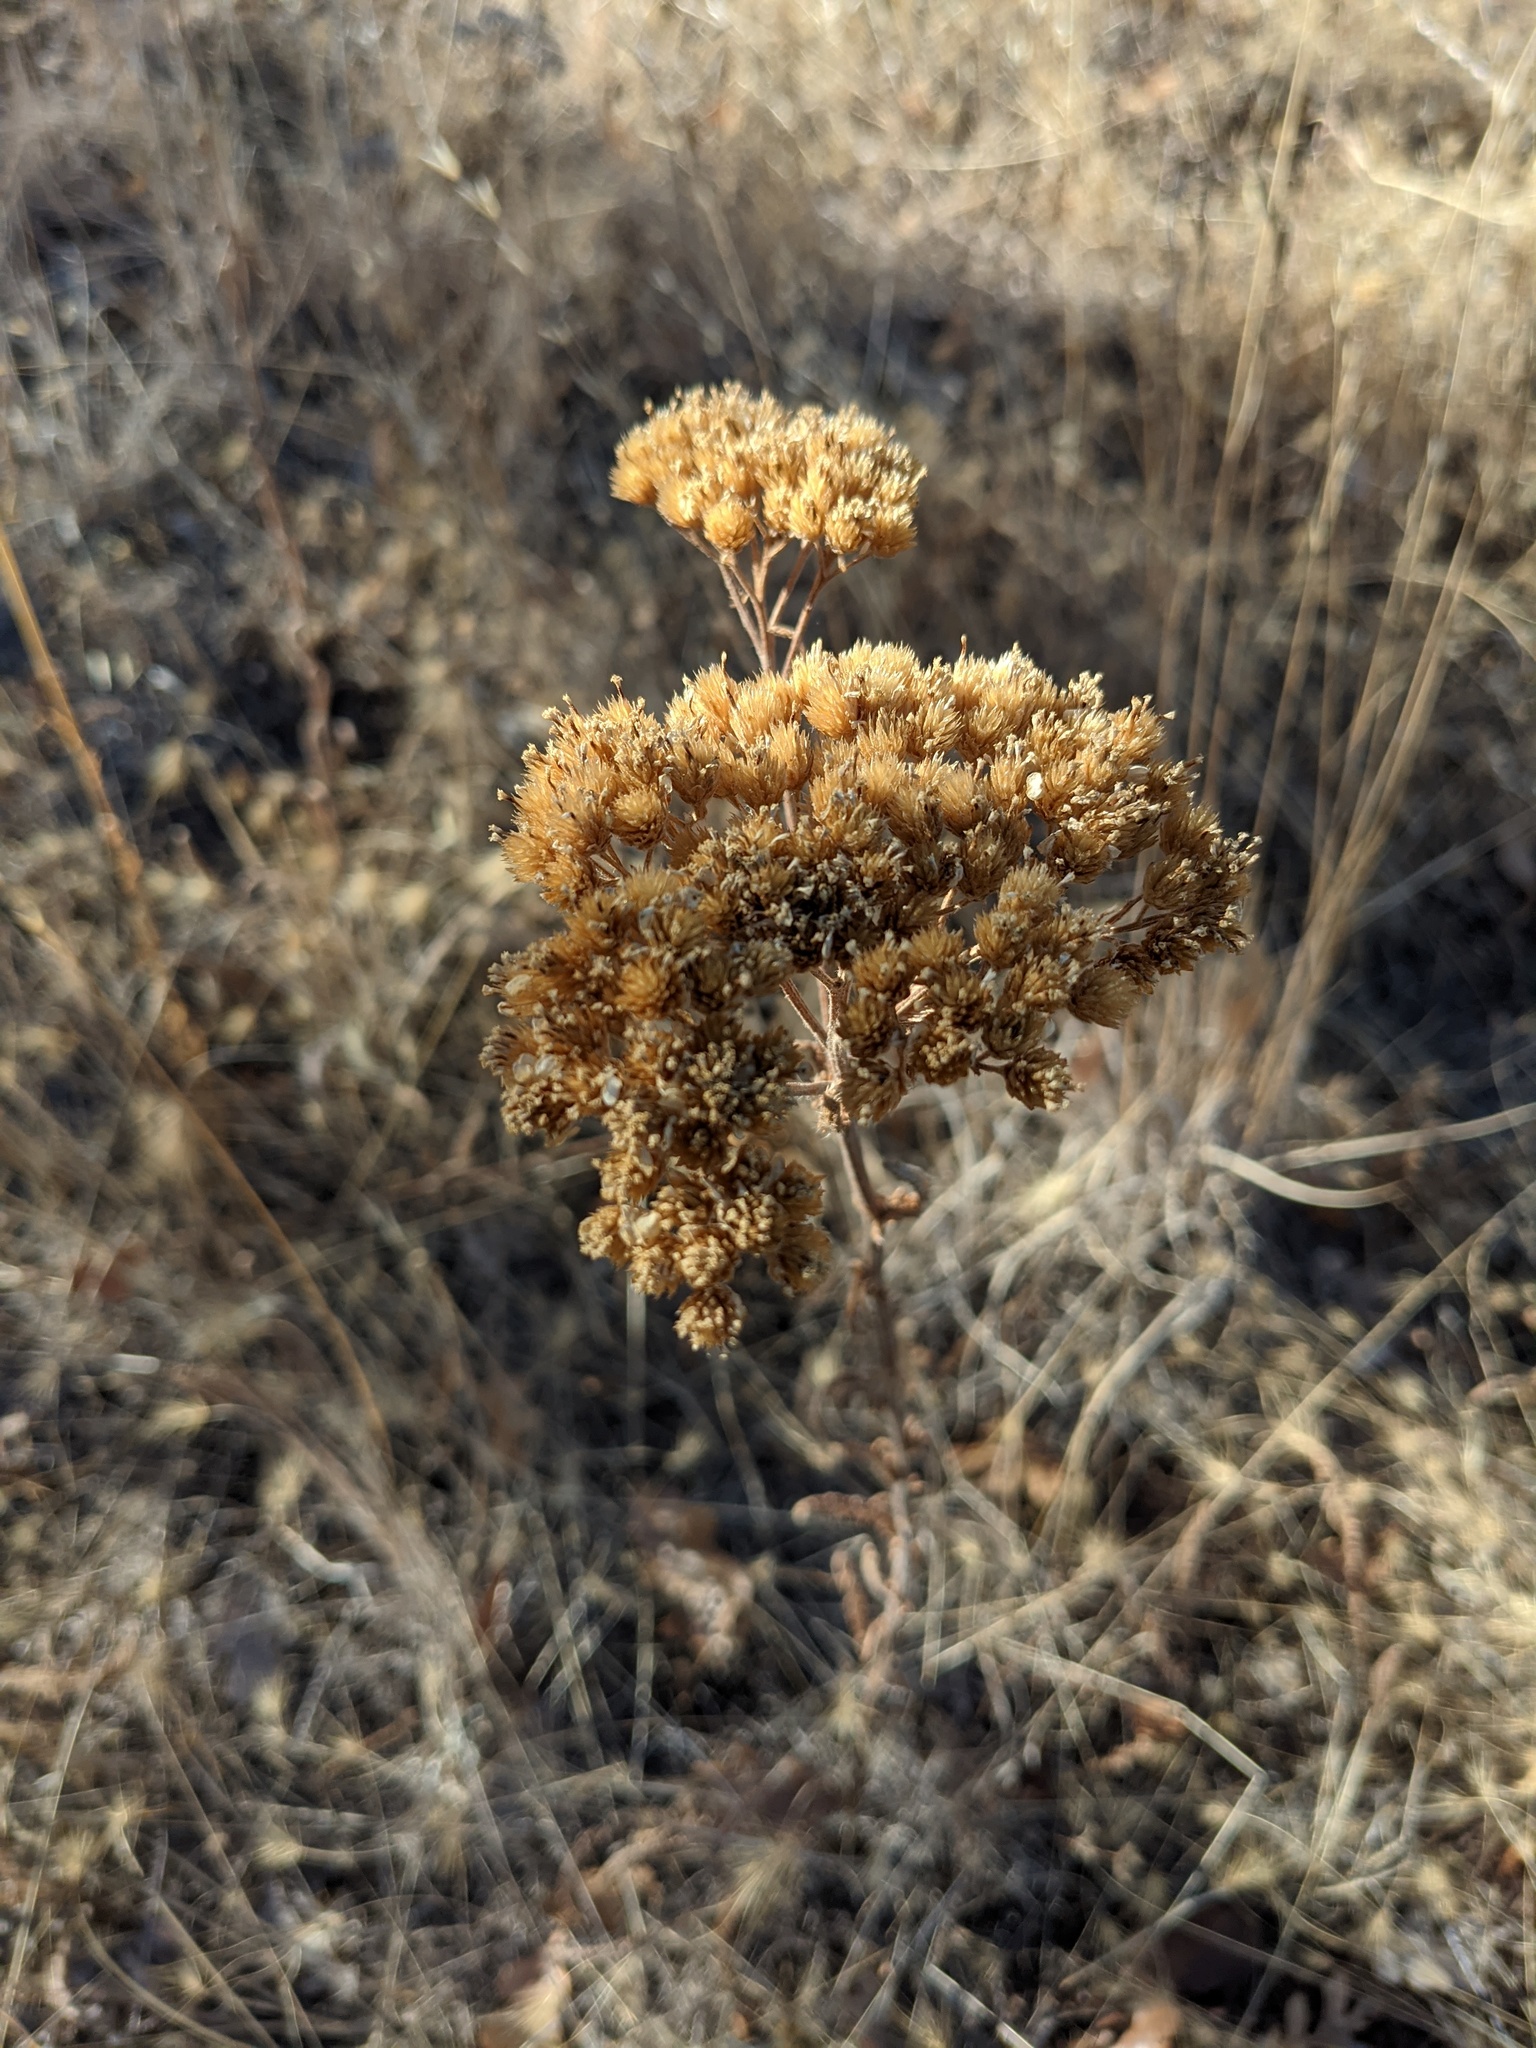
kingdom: Plantae
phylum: Tracheophyta
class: Magnoliopsida
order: Asterales
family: Asteraceae
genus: Achillea
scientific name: Achillea millefolium
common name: Yarrow
